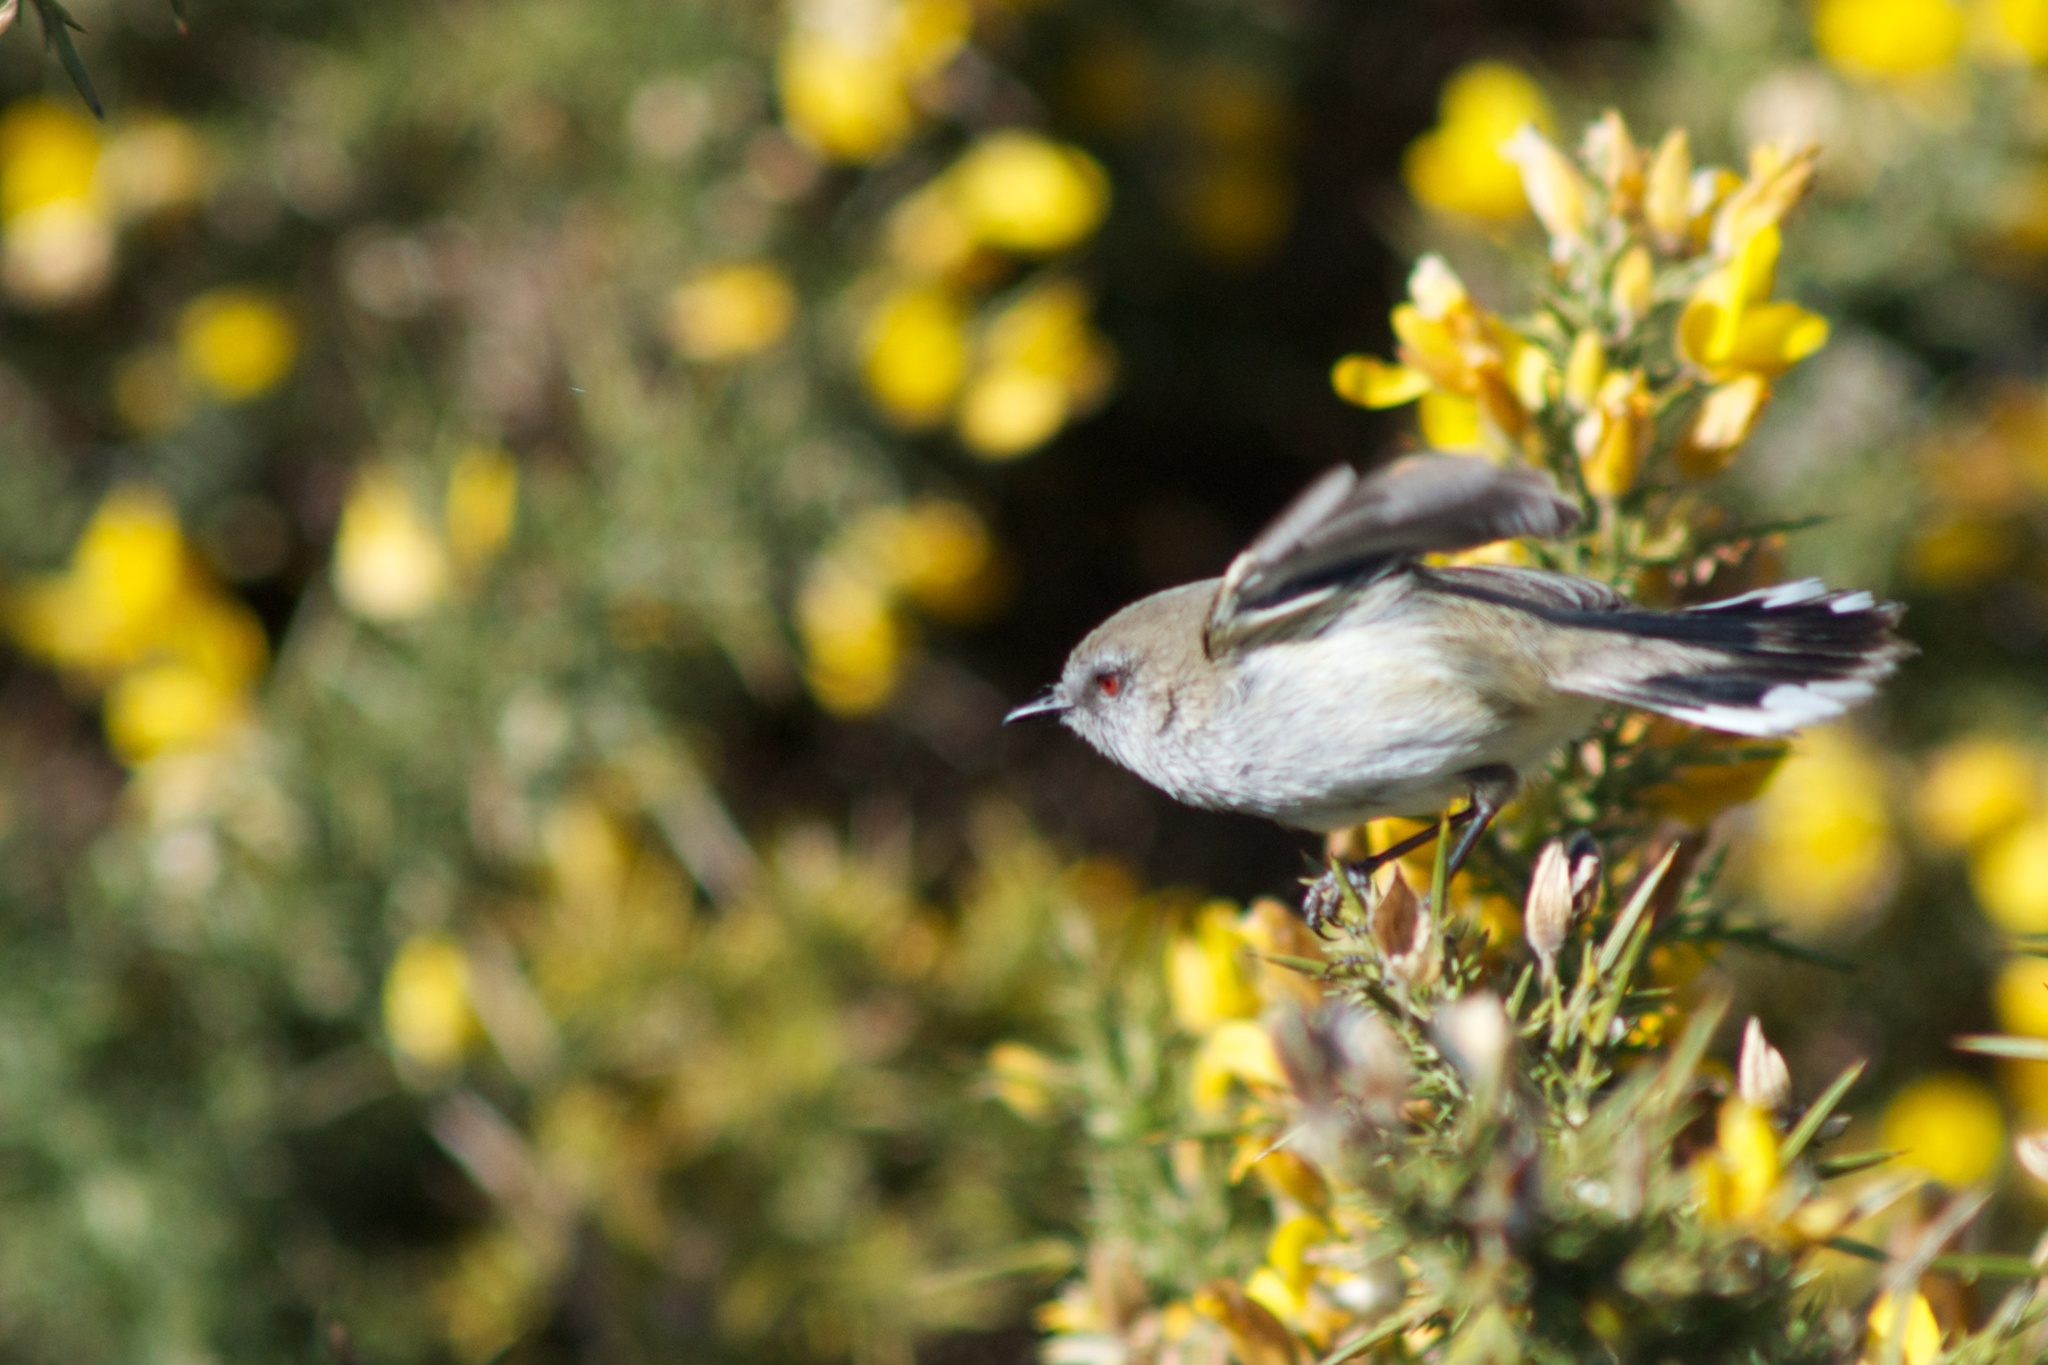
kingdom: Animalia
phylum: Chordata
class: Aves
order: Passeriformes
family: Acanthizidae
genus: Gerygone
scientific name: Gerygone igata
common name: Grey gerygone
